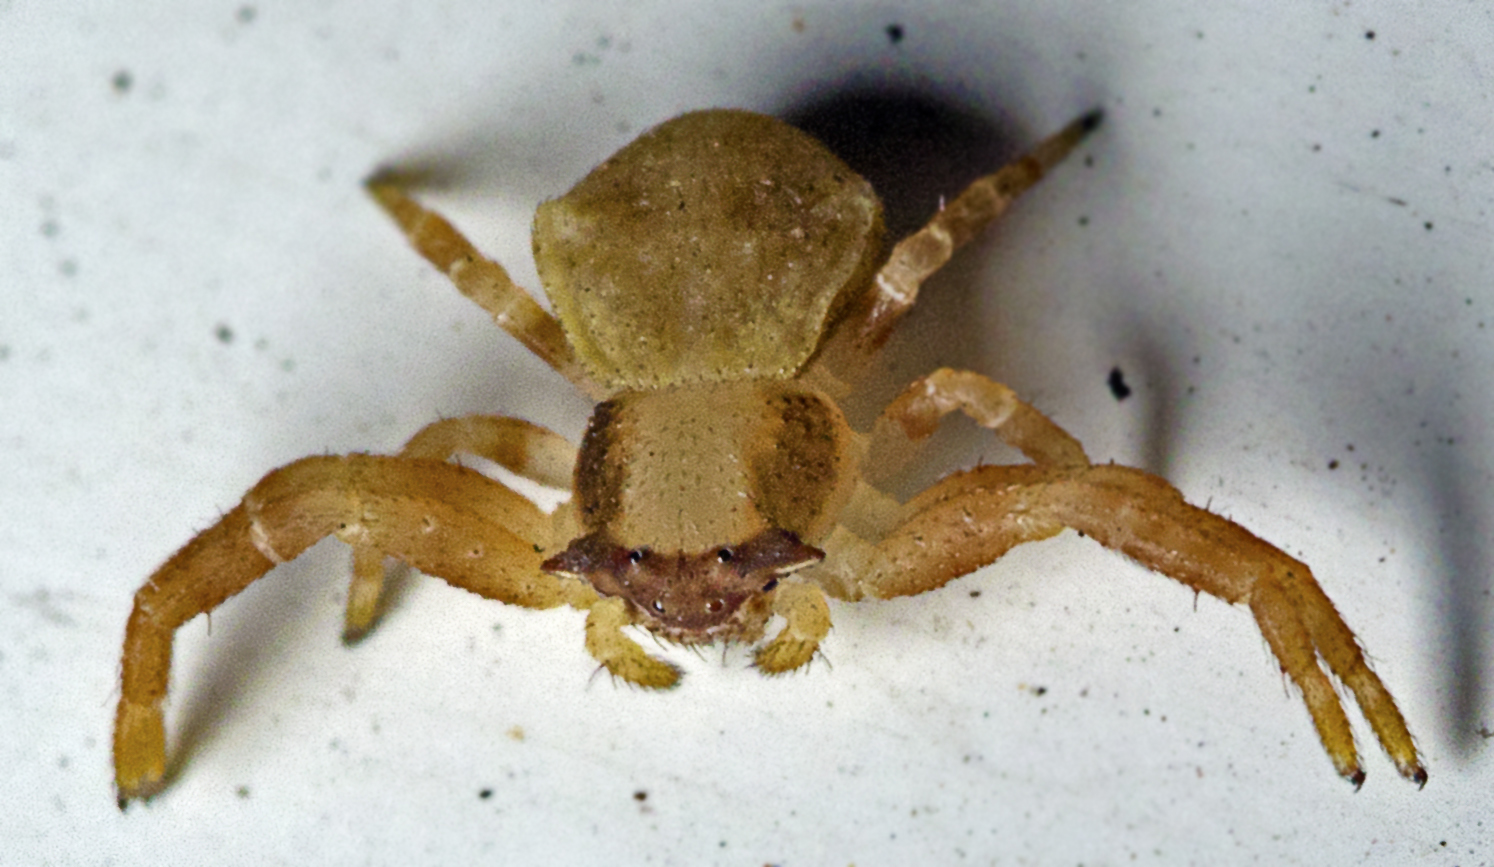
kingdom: Animalia
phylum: Arthropoda
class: Arachnida
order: Araneae
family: Thomisidae
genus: Thomisus
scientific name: Thomisus spectabilis
